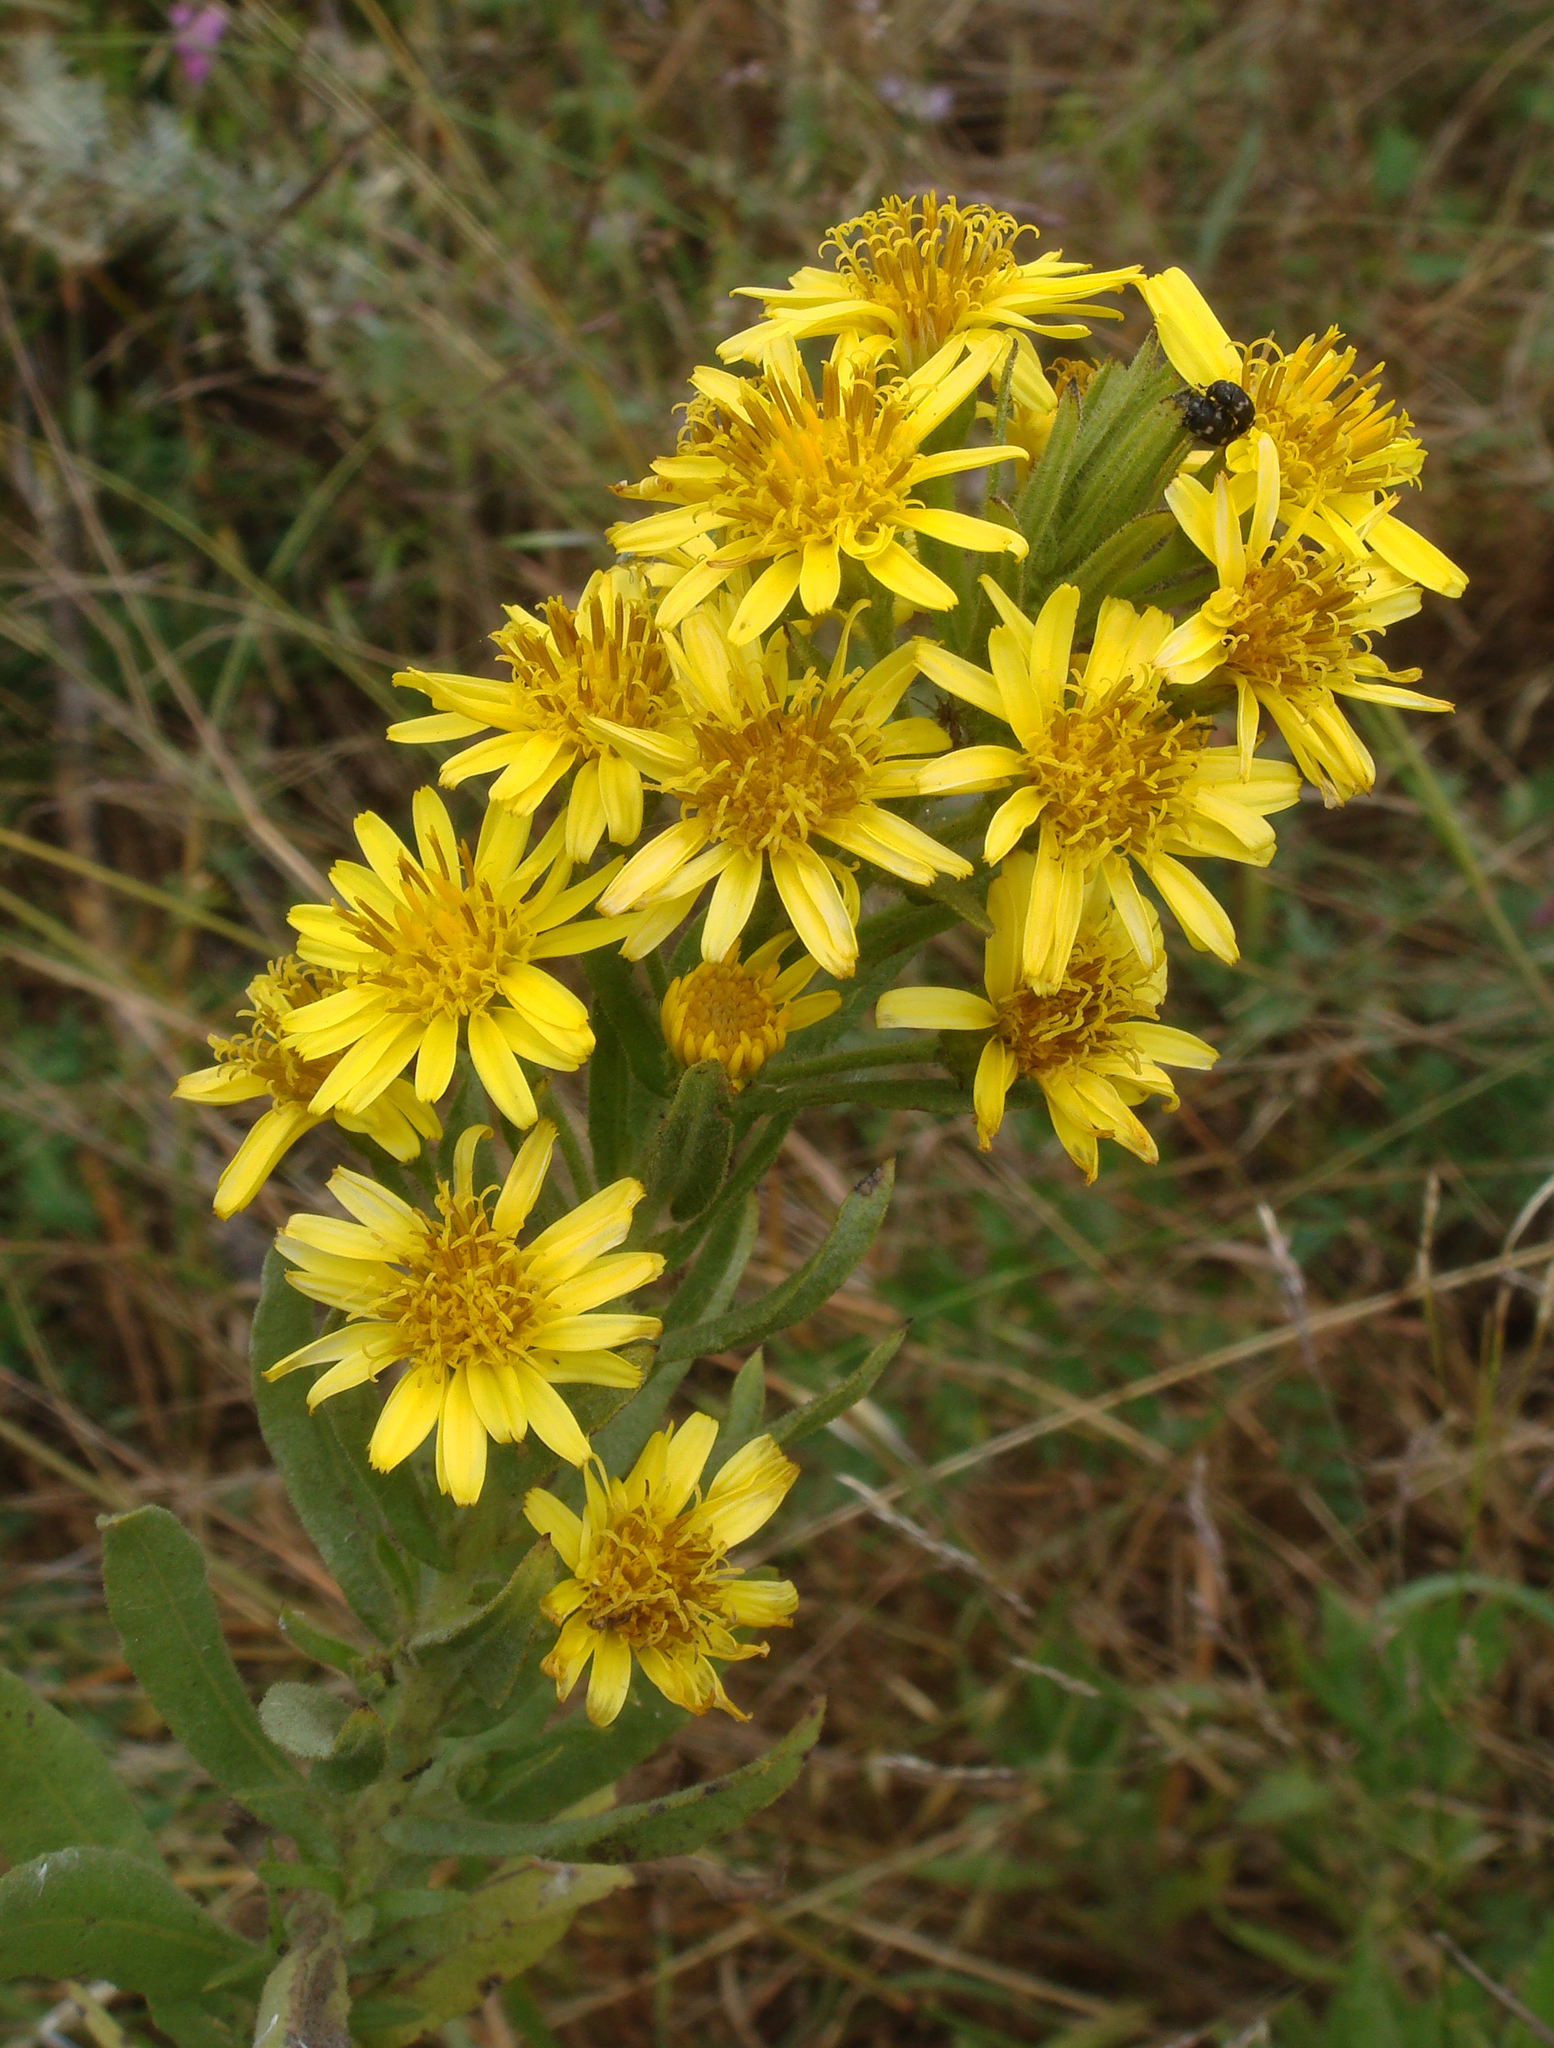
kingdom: Plantae
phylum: Tracheophyta
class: Magnoliopsida
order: Asterales
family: Asteraceae
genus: Dittrichia
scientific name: Dittrichia viscosa
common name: Woody fleabane
